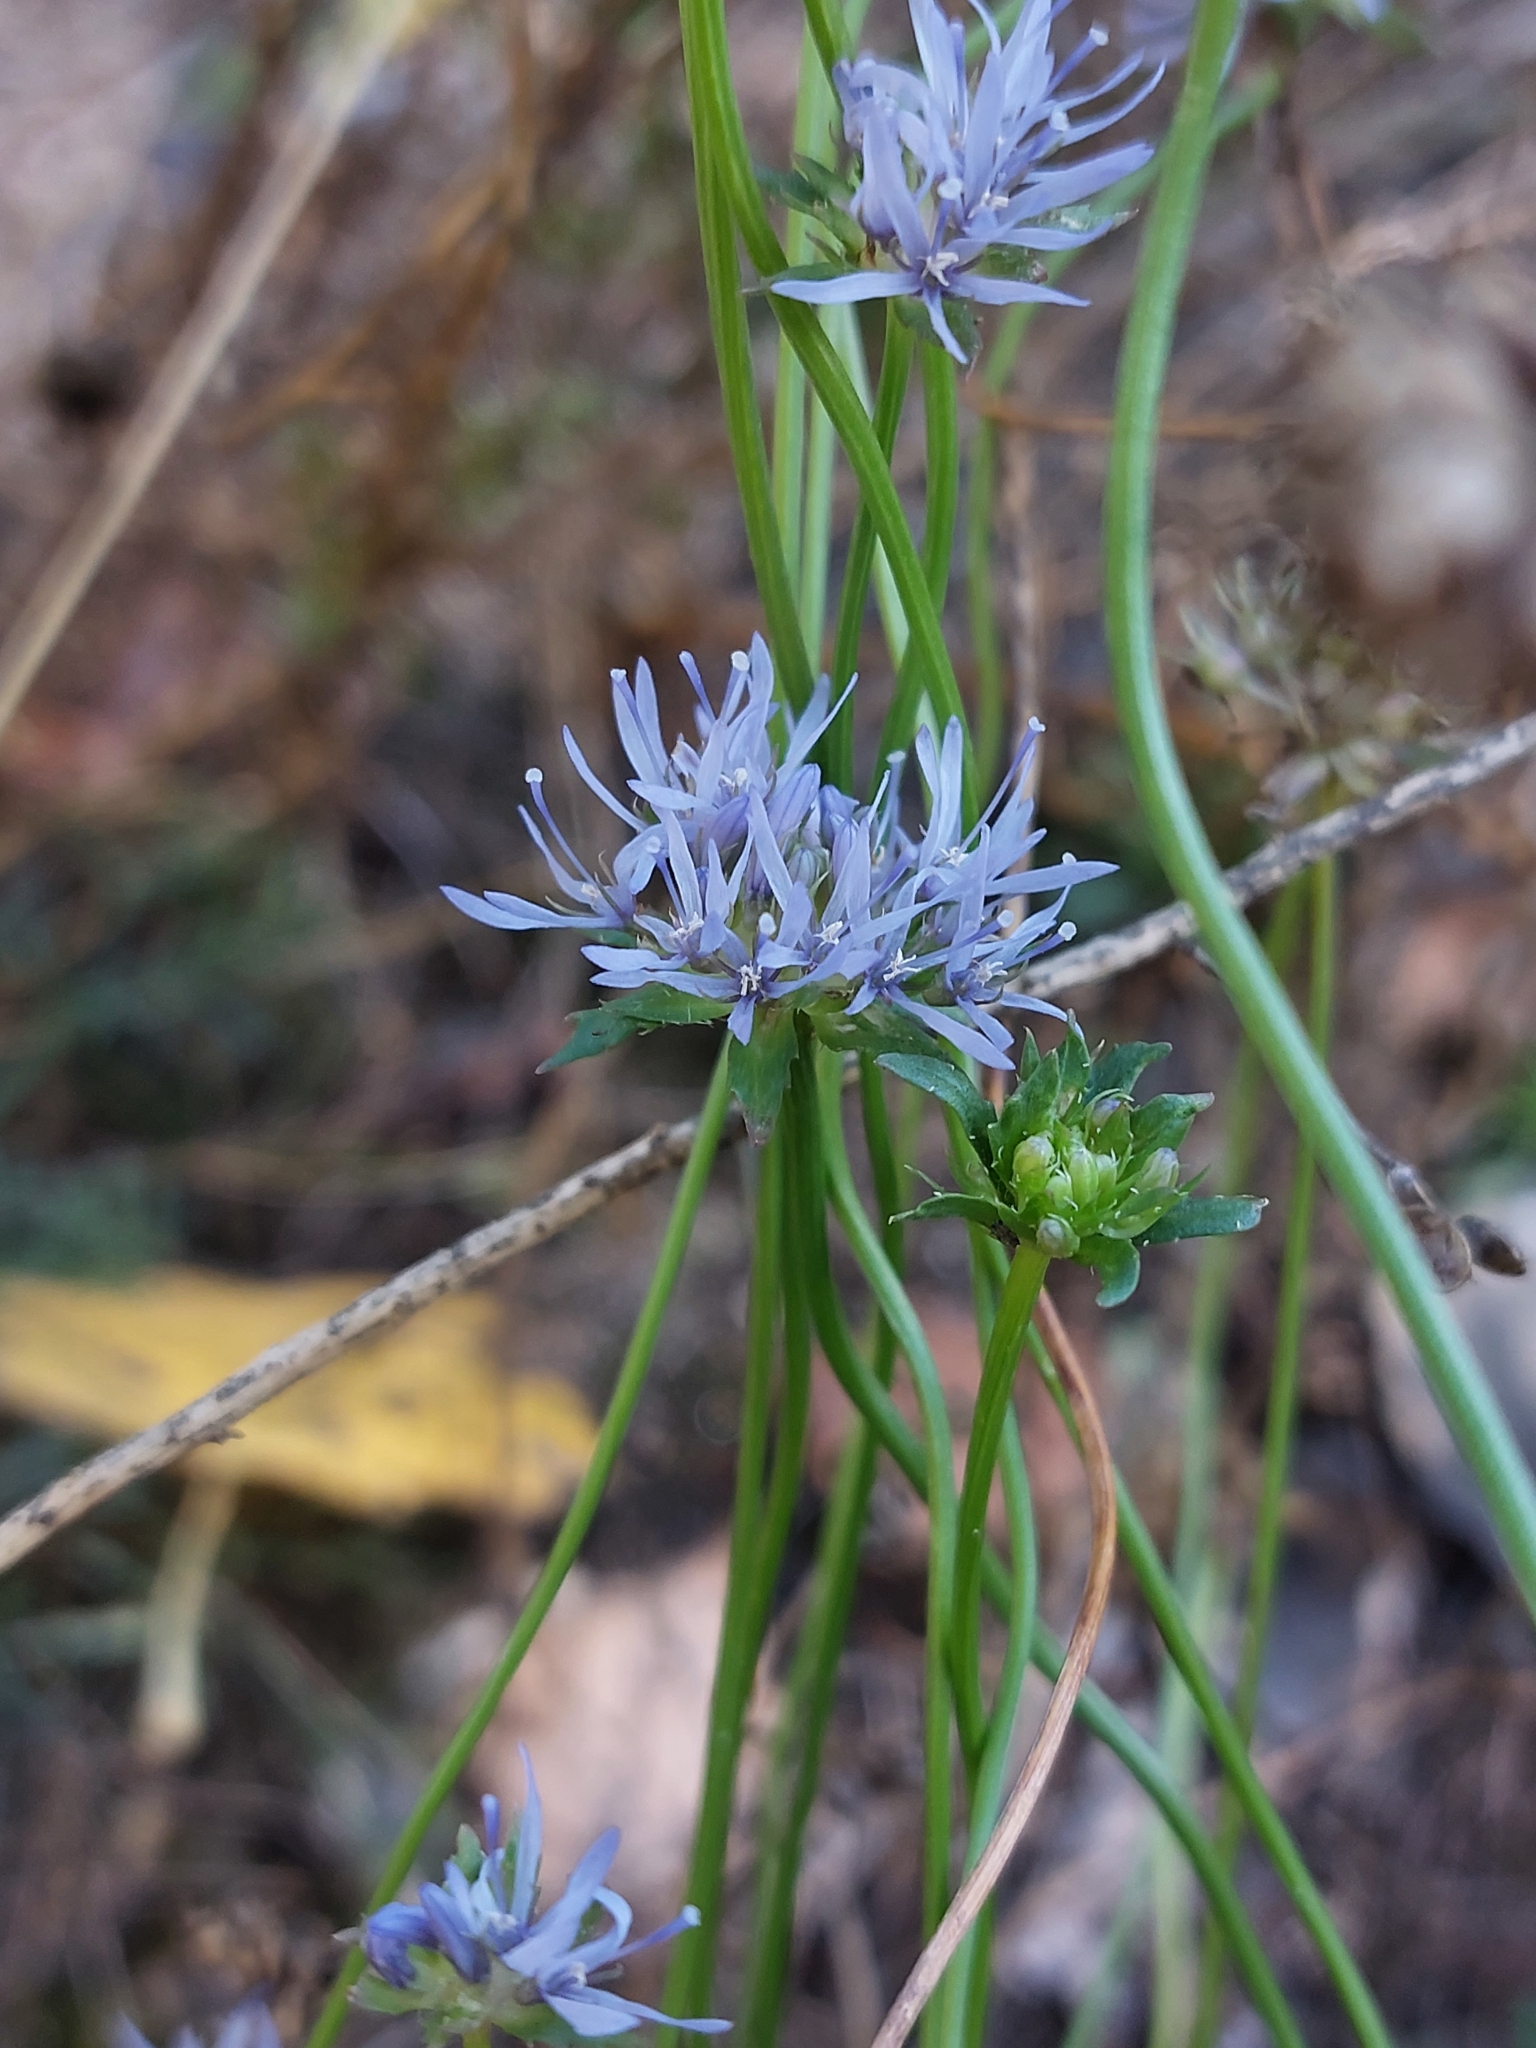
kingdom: Plantae
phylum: Tracheophyta
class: Magnoliopsida
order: Asterales
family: Campanulaceae
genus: Jasione
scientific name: Jasione montana
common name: Sheep's-bit
